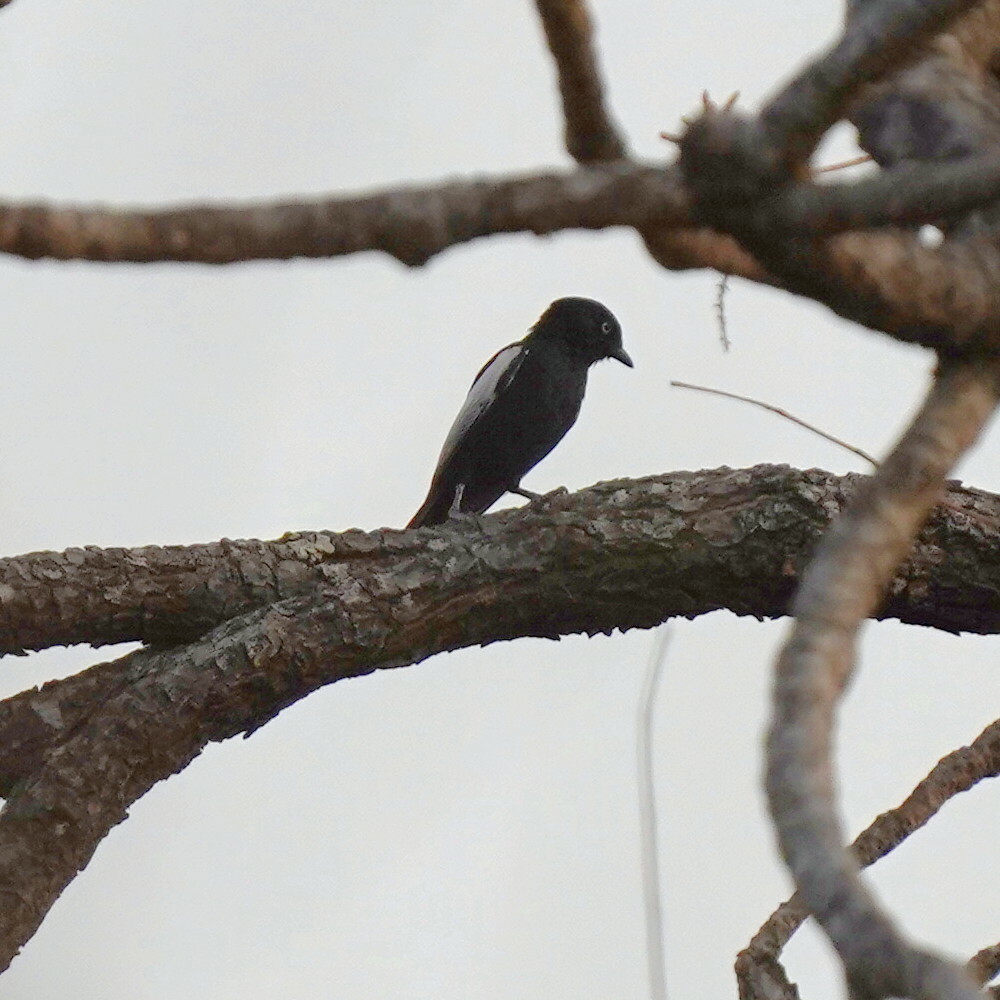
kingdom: Animalia
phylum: Chordata
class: Aves
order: Passeriformes
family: Paridae
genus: Parus
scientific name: Parus guineensis
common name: White-shouldered black tit
